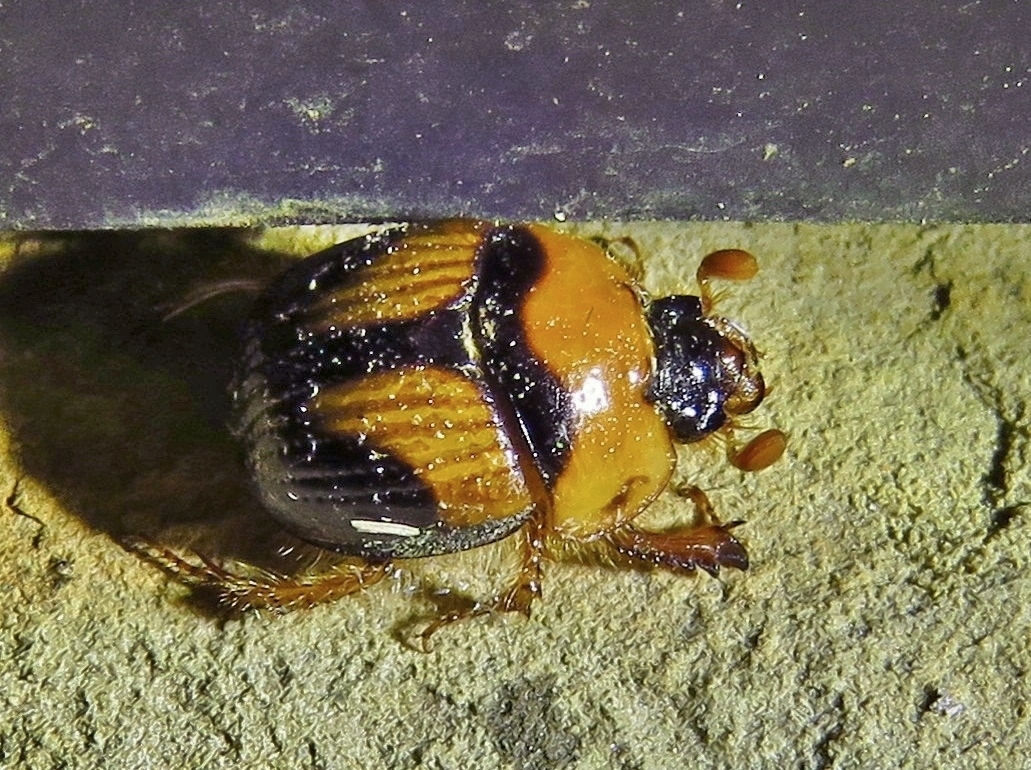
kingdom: Animalia
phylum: Arthropoda
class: Insecta
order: Coleoptera
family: Geotrupidae
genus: Bolbocerosoma
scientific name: Bolbocerosoma lepidissimum
